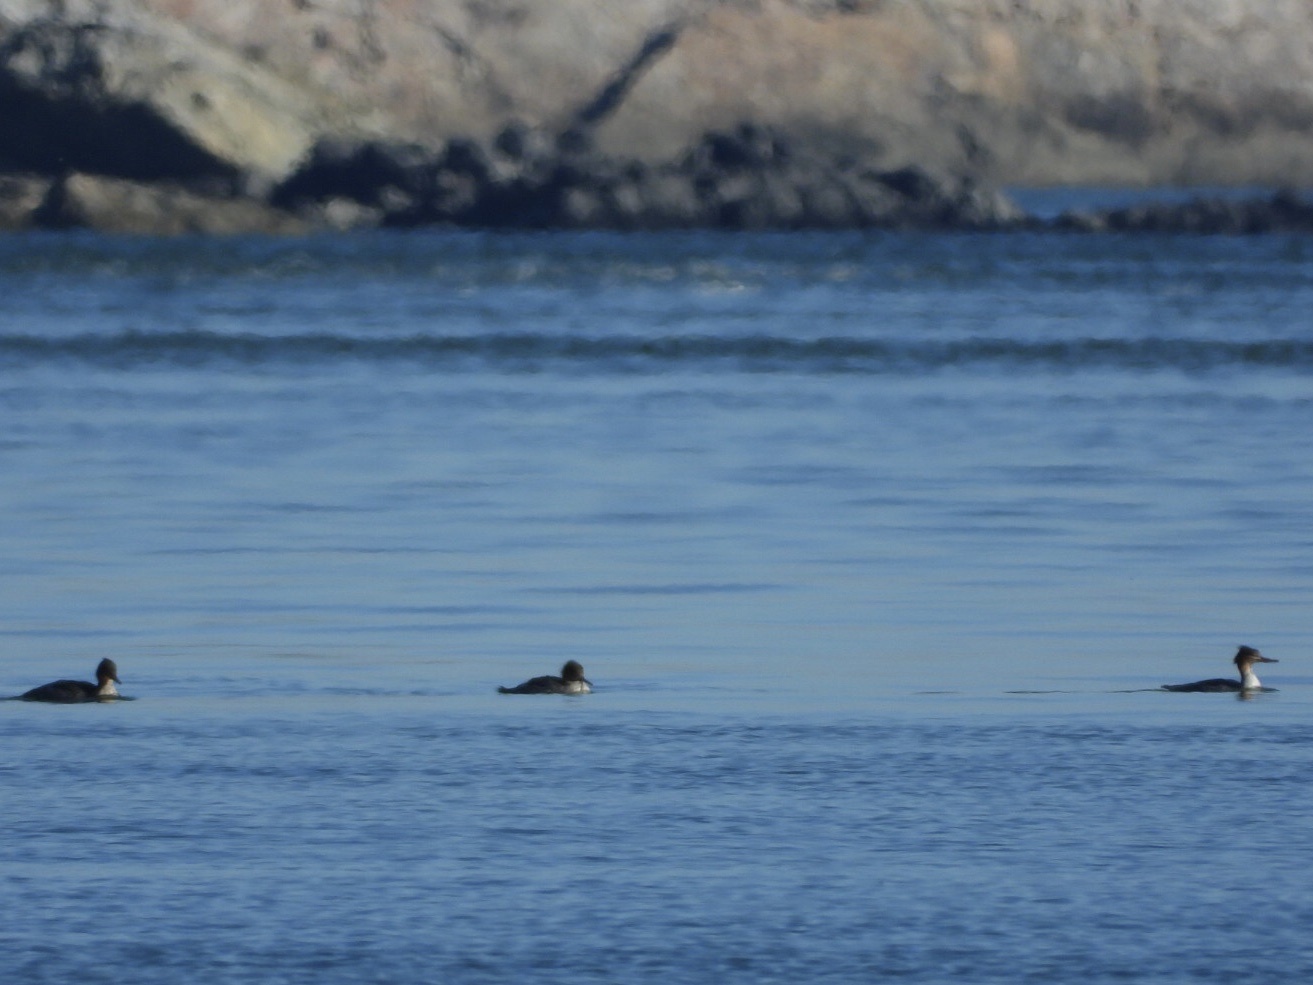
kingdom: Animalia
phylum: Chordata
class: Aves
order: Anseriformes
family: Anatidae
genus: Mergus
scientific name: Mergus serrator
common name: Red-breasted merganser
